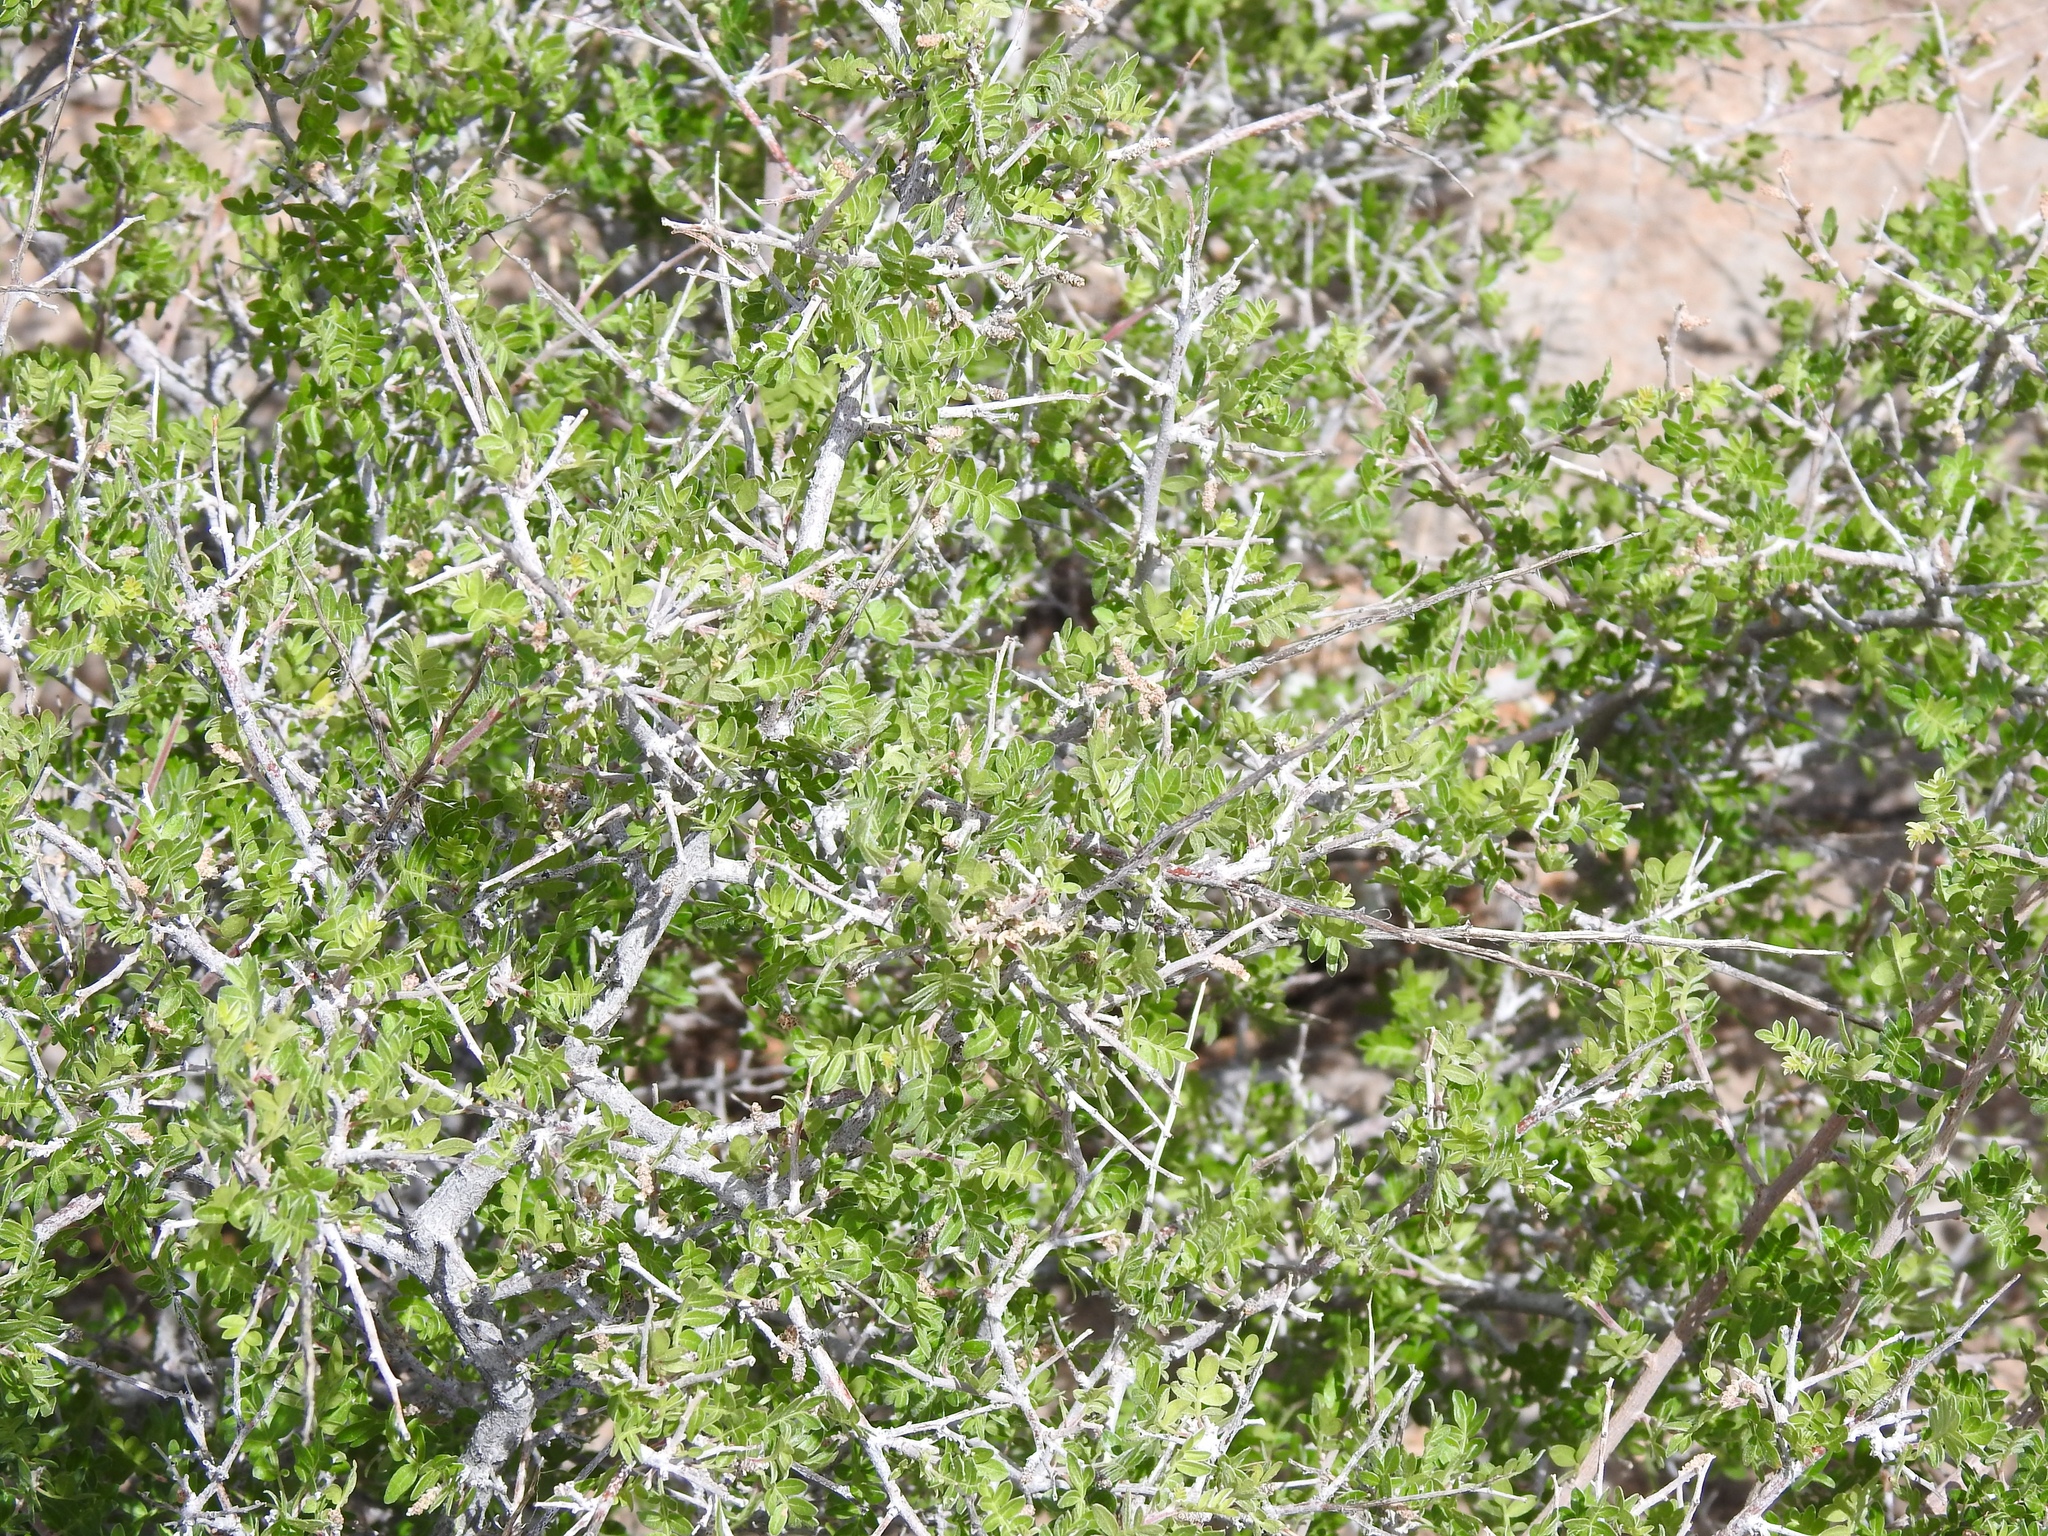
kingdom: Plantae
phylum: Tracheophyta
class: Magnoliopsida
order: Sapindales
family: Anacardiaceae
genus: Rhus
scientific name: Rhus microphylla
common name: Desert sumac
